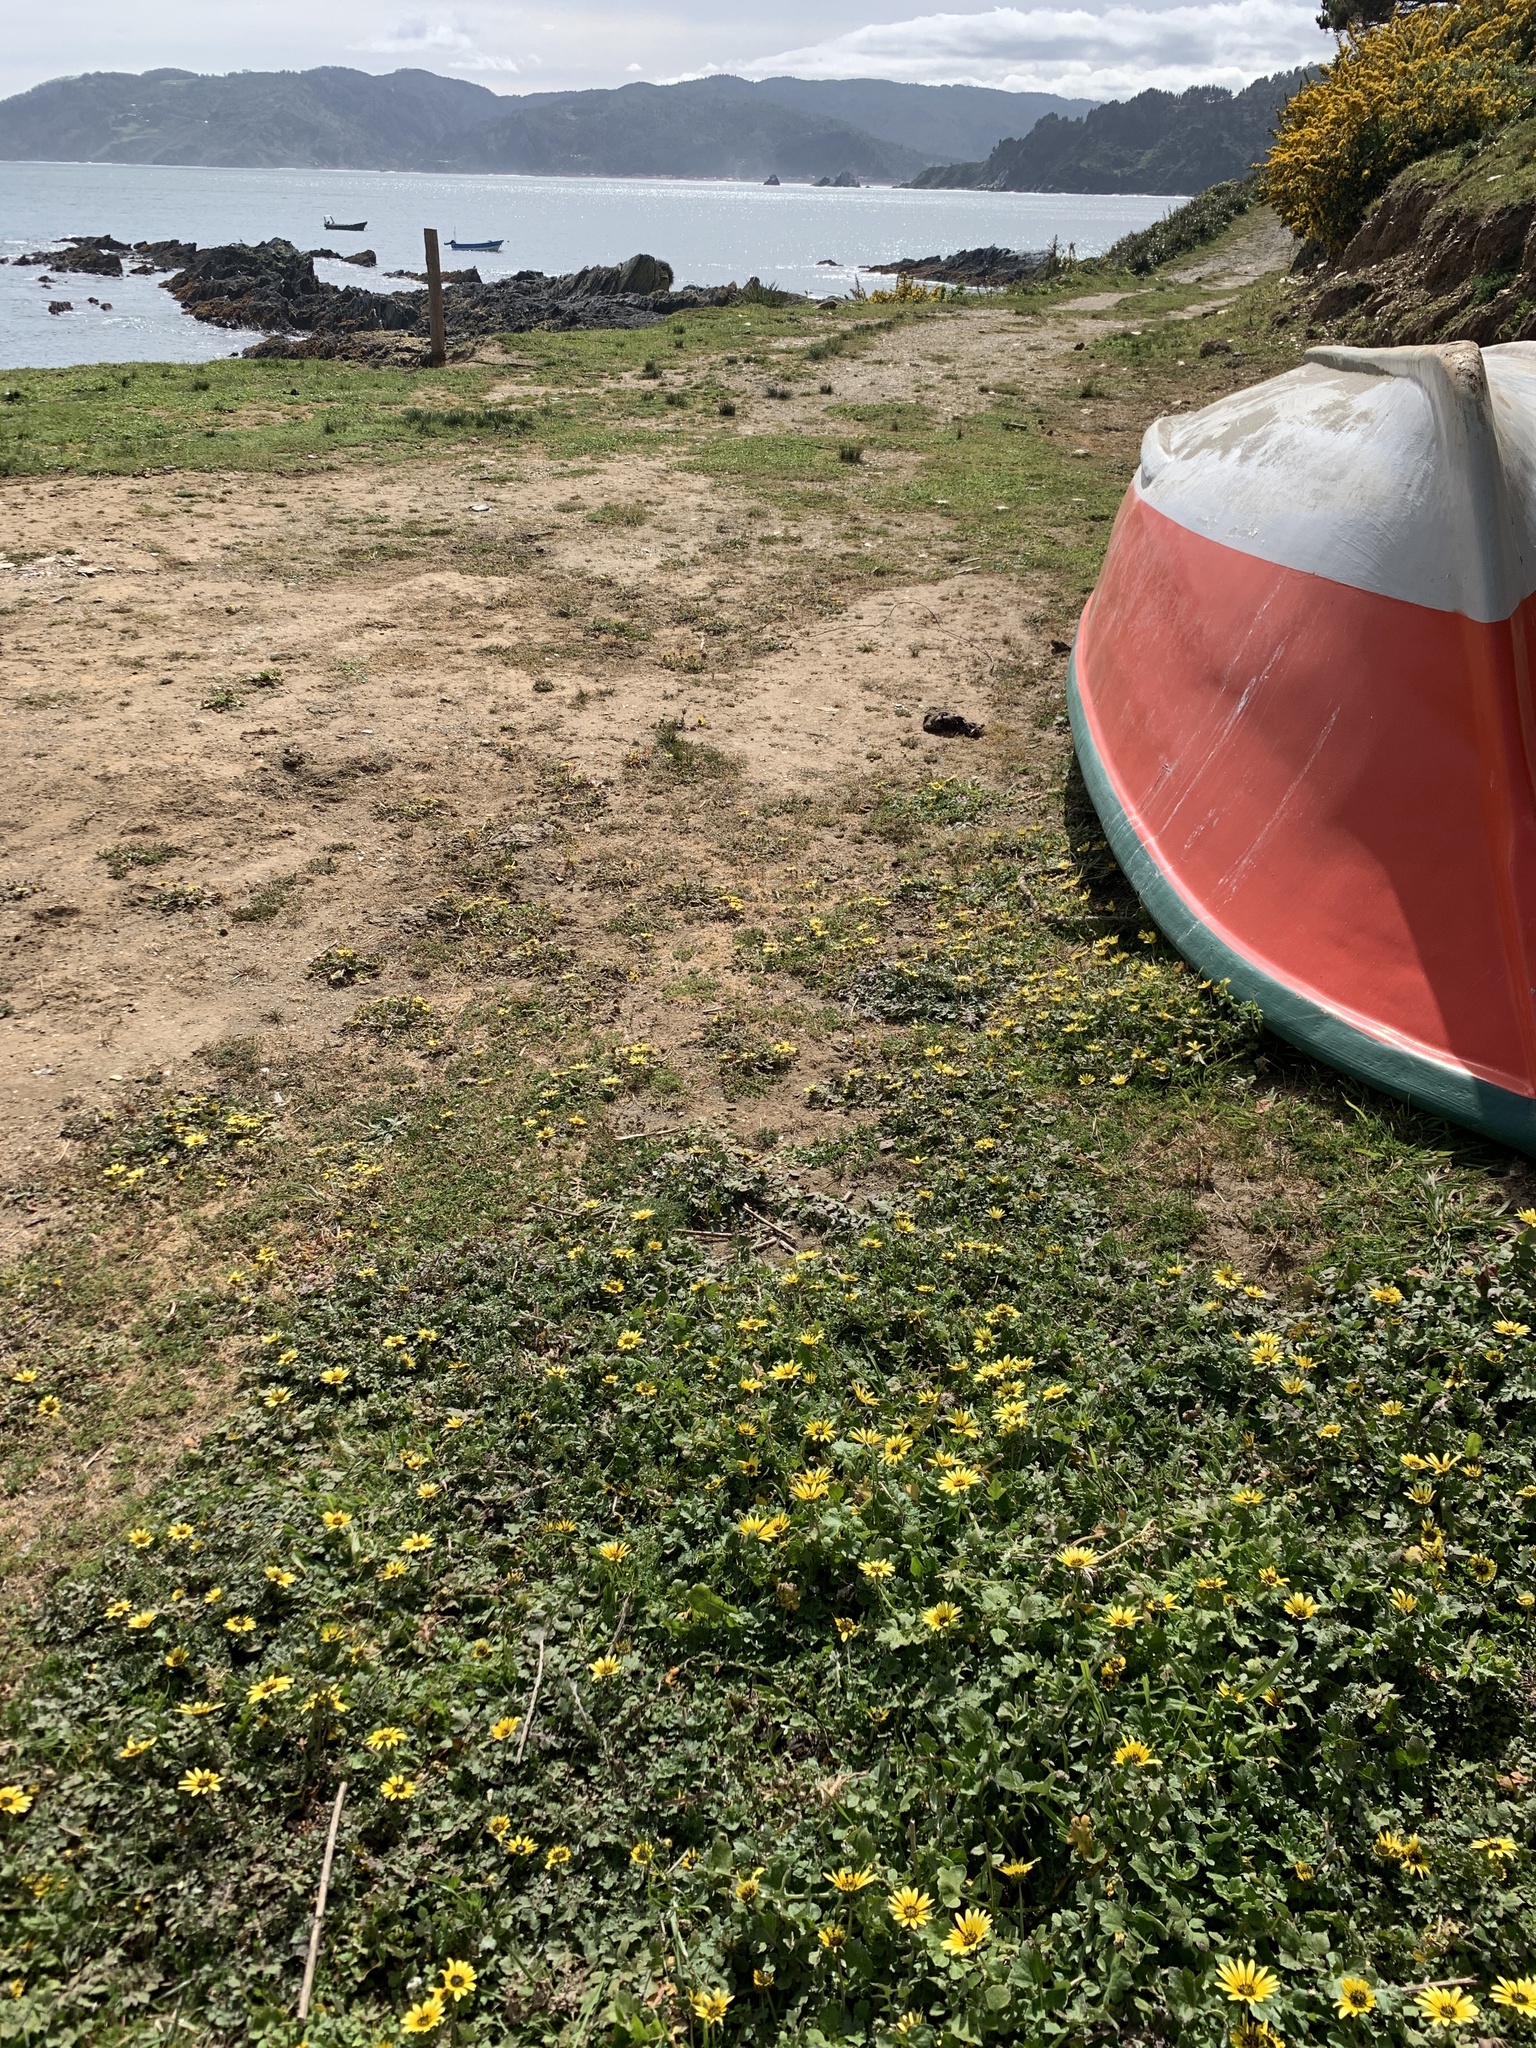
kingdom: Plantae
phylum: Tracheophyta
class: Magnoliopsida
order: Asterales
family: Asteraceae
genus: Arctotheca
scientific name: Arctotheca calendula
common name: Capeweed
